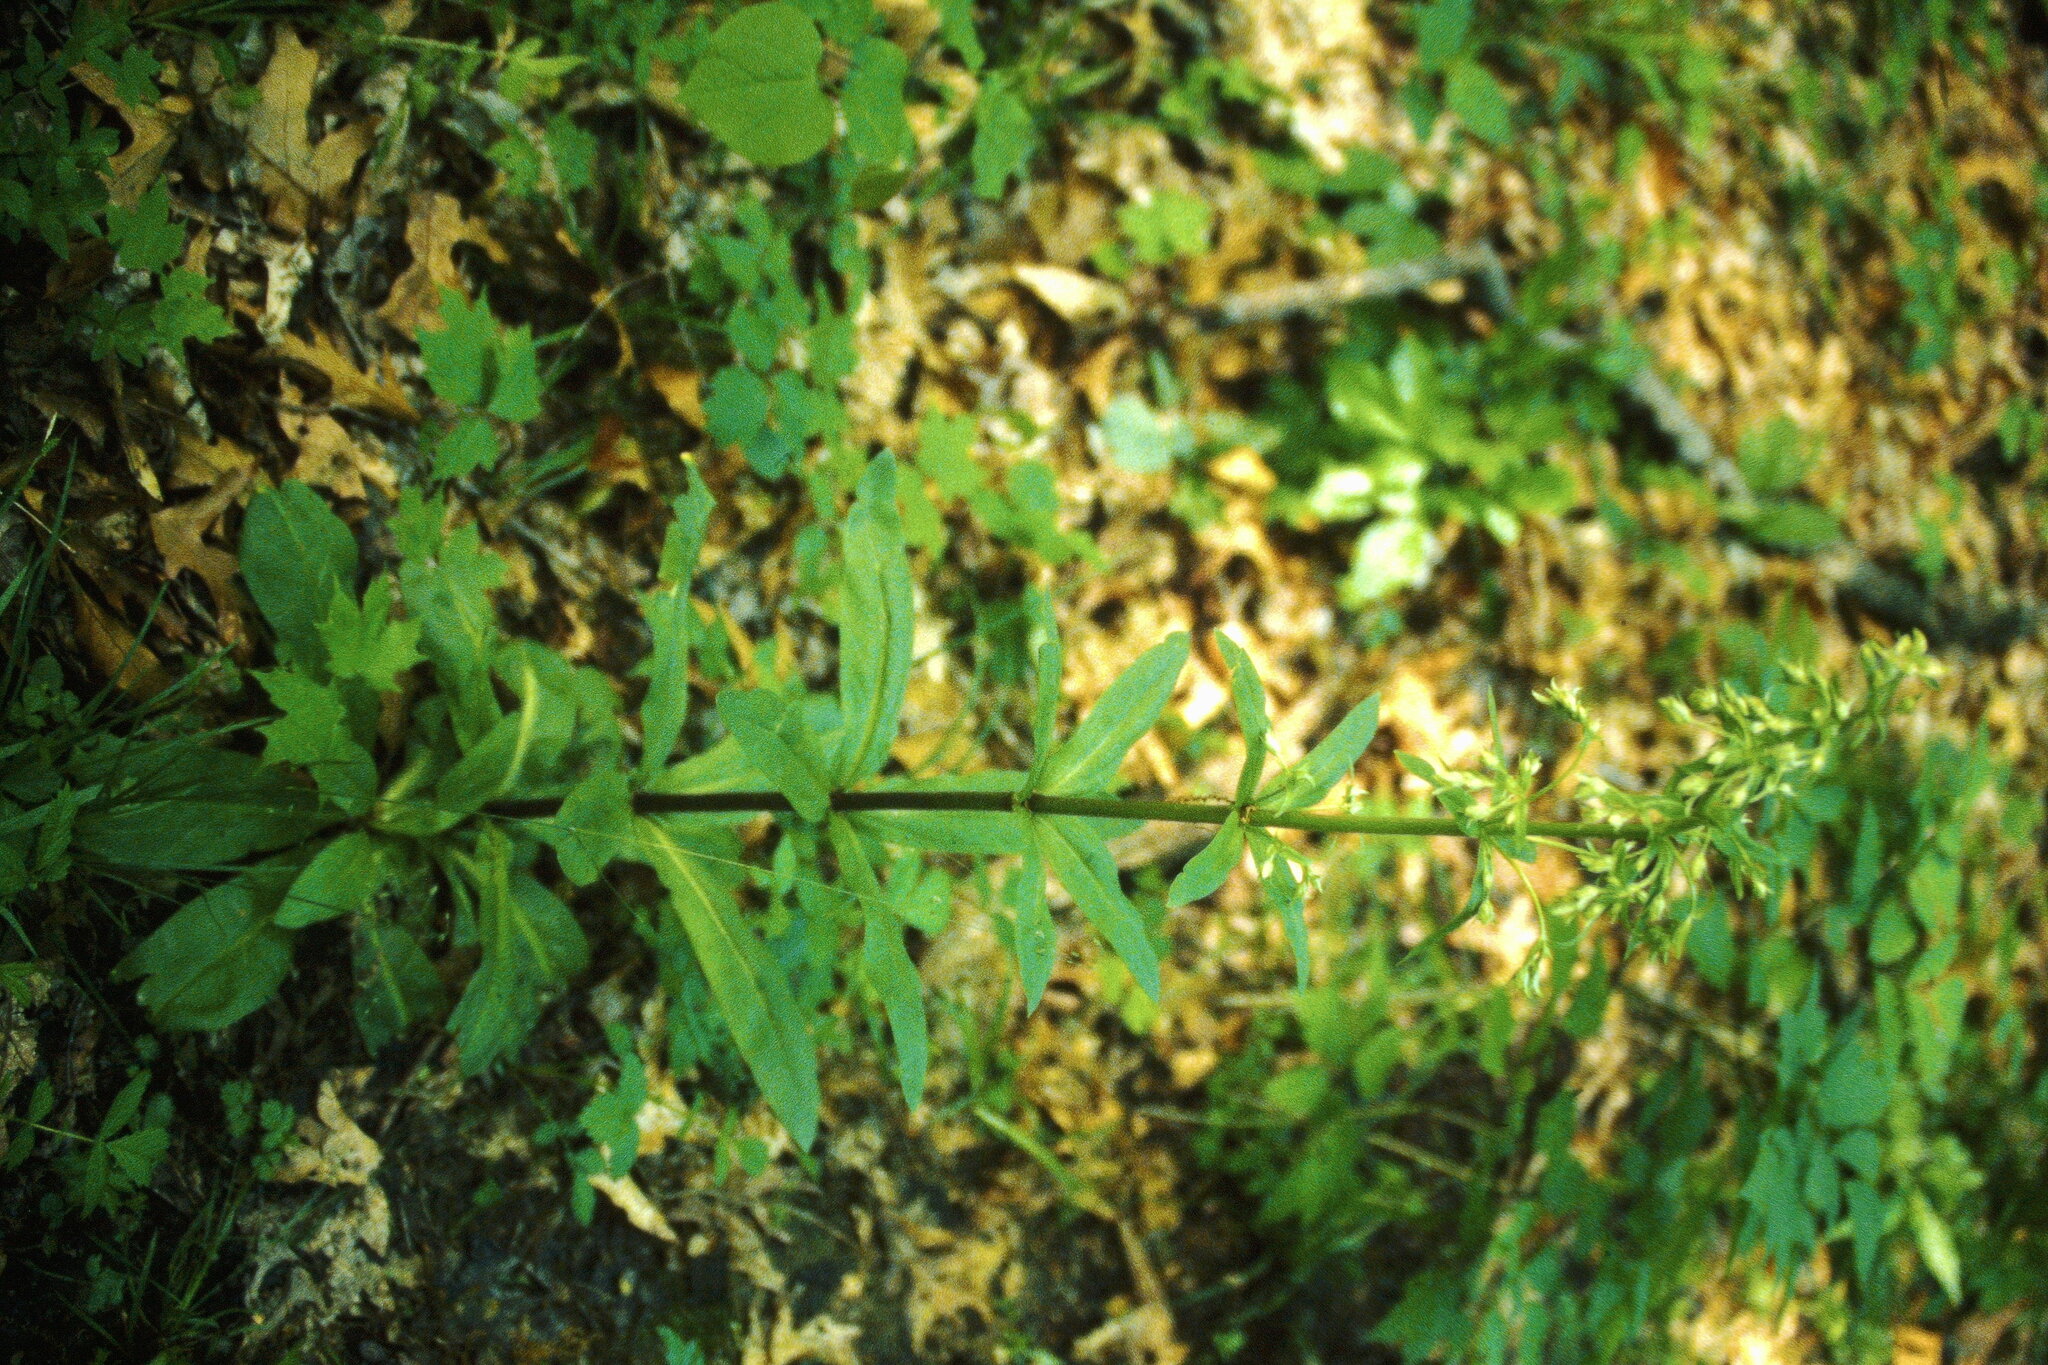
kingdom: Plantae
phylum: Tracheophyta
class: Magnoliopsida
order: Gentianales
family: Gentianaceae
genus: Frasera
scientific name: Frasera caroliniensis
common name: American columbo
